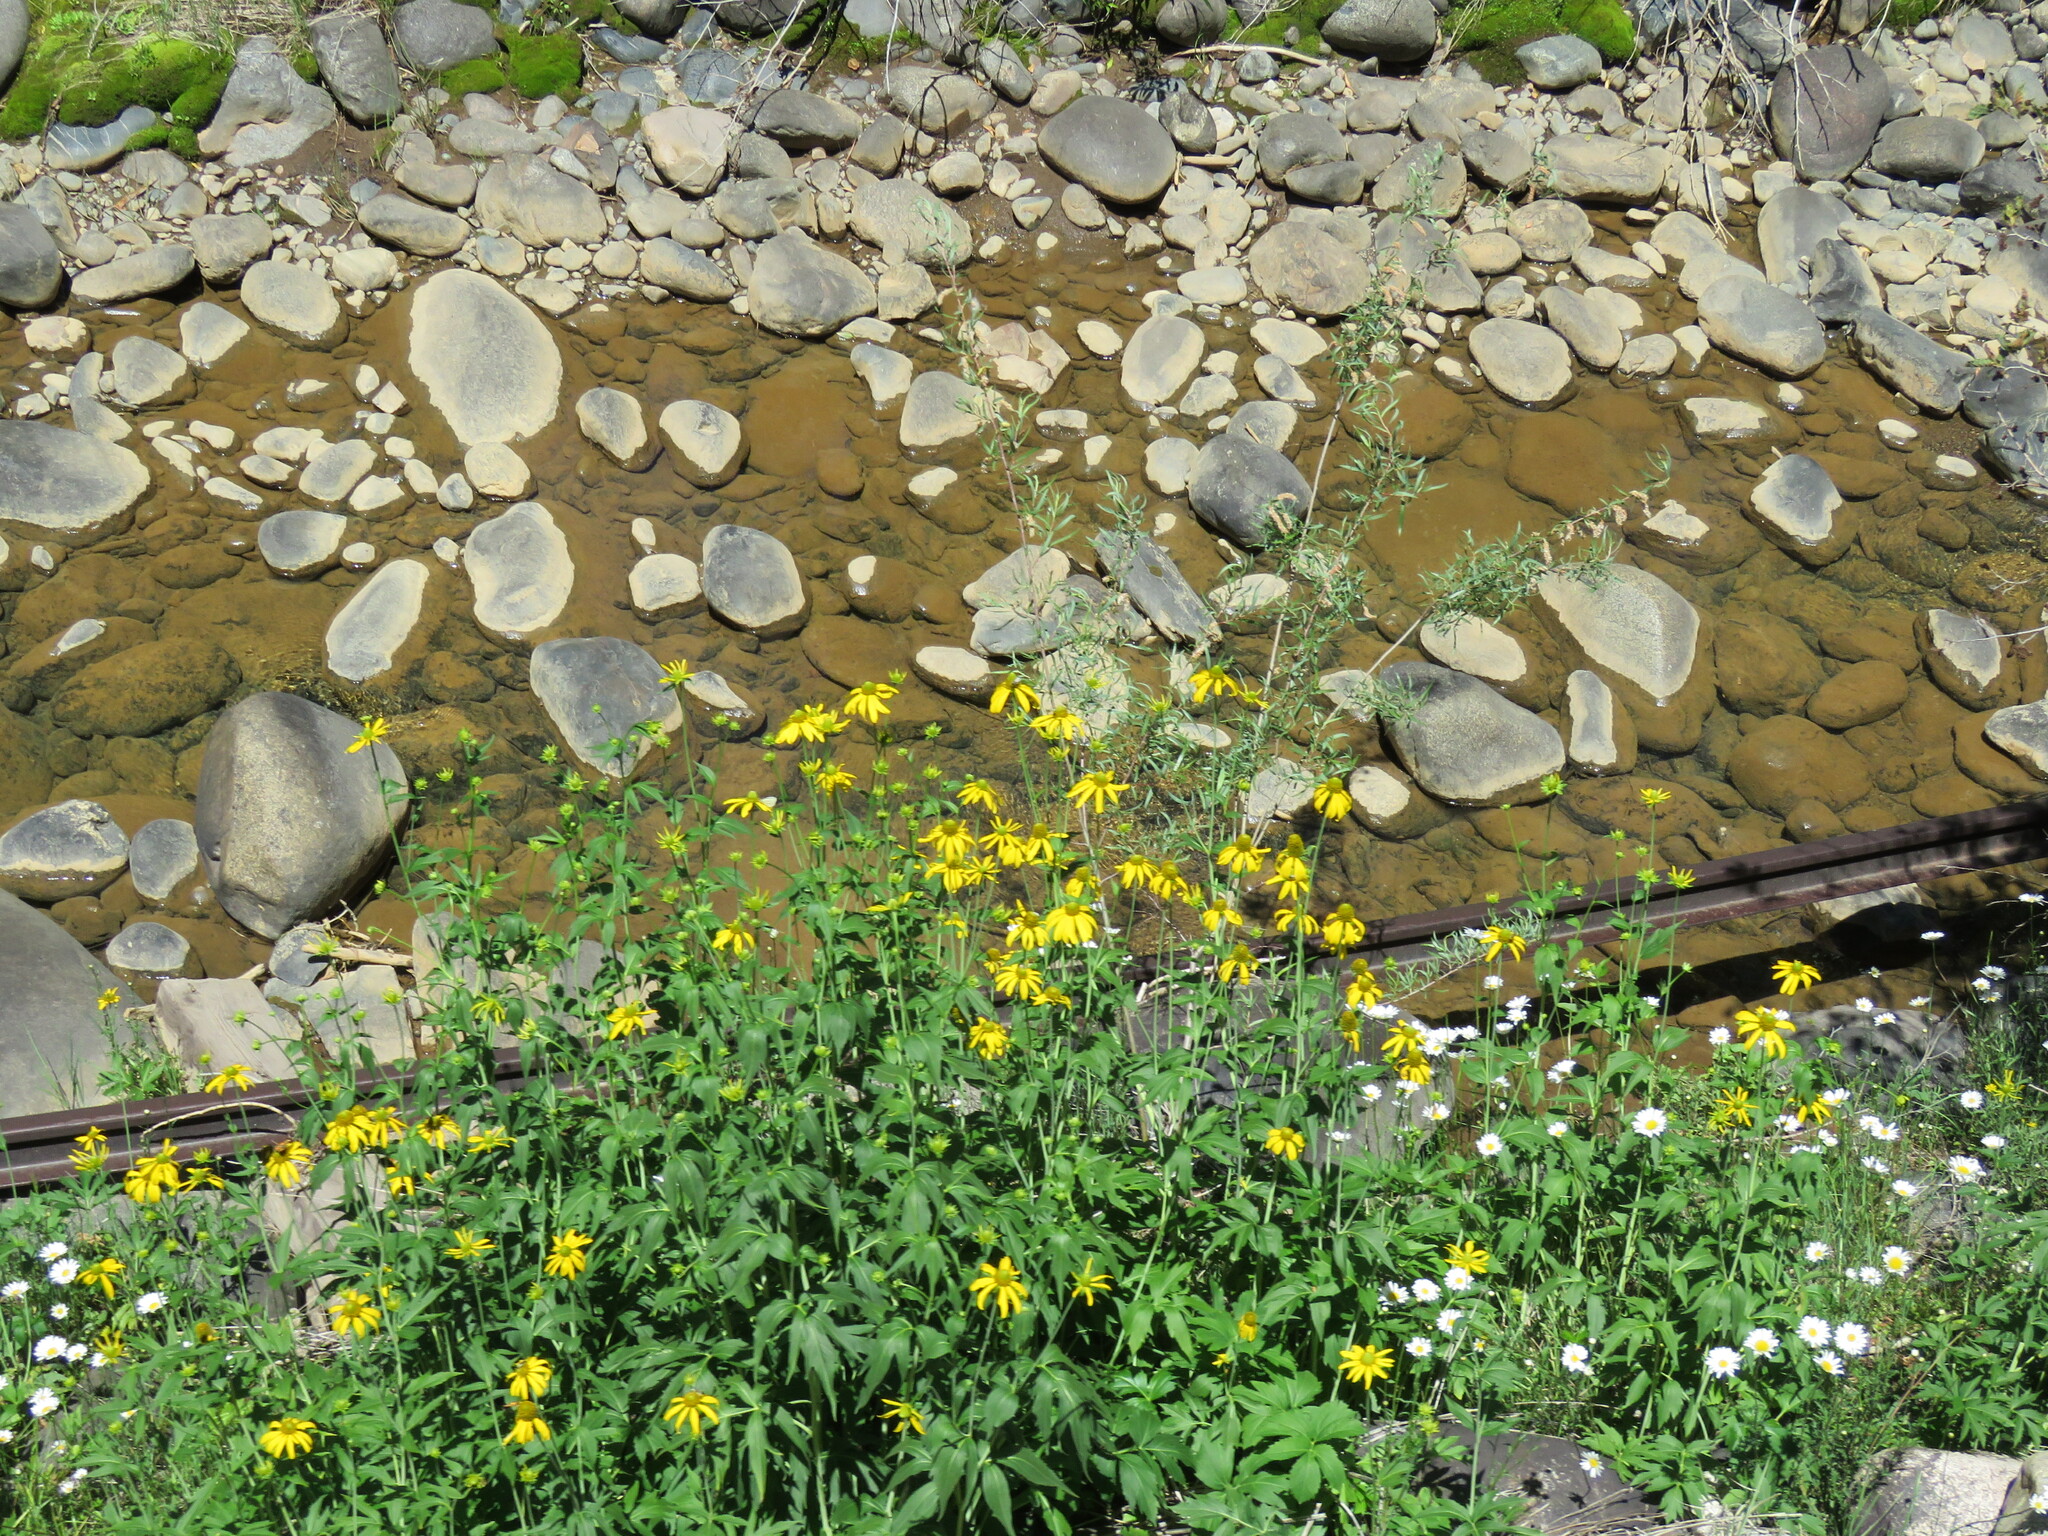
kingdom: Plantae
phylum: Tracheophyta
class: Magnoliopsida
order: Asterales
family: Asteraceae
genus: Rudbeckia
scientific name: Rudbeckia laciniata
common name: Coneflower
